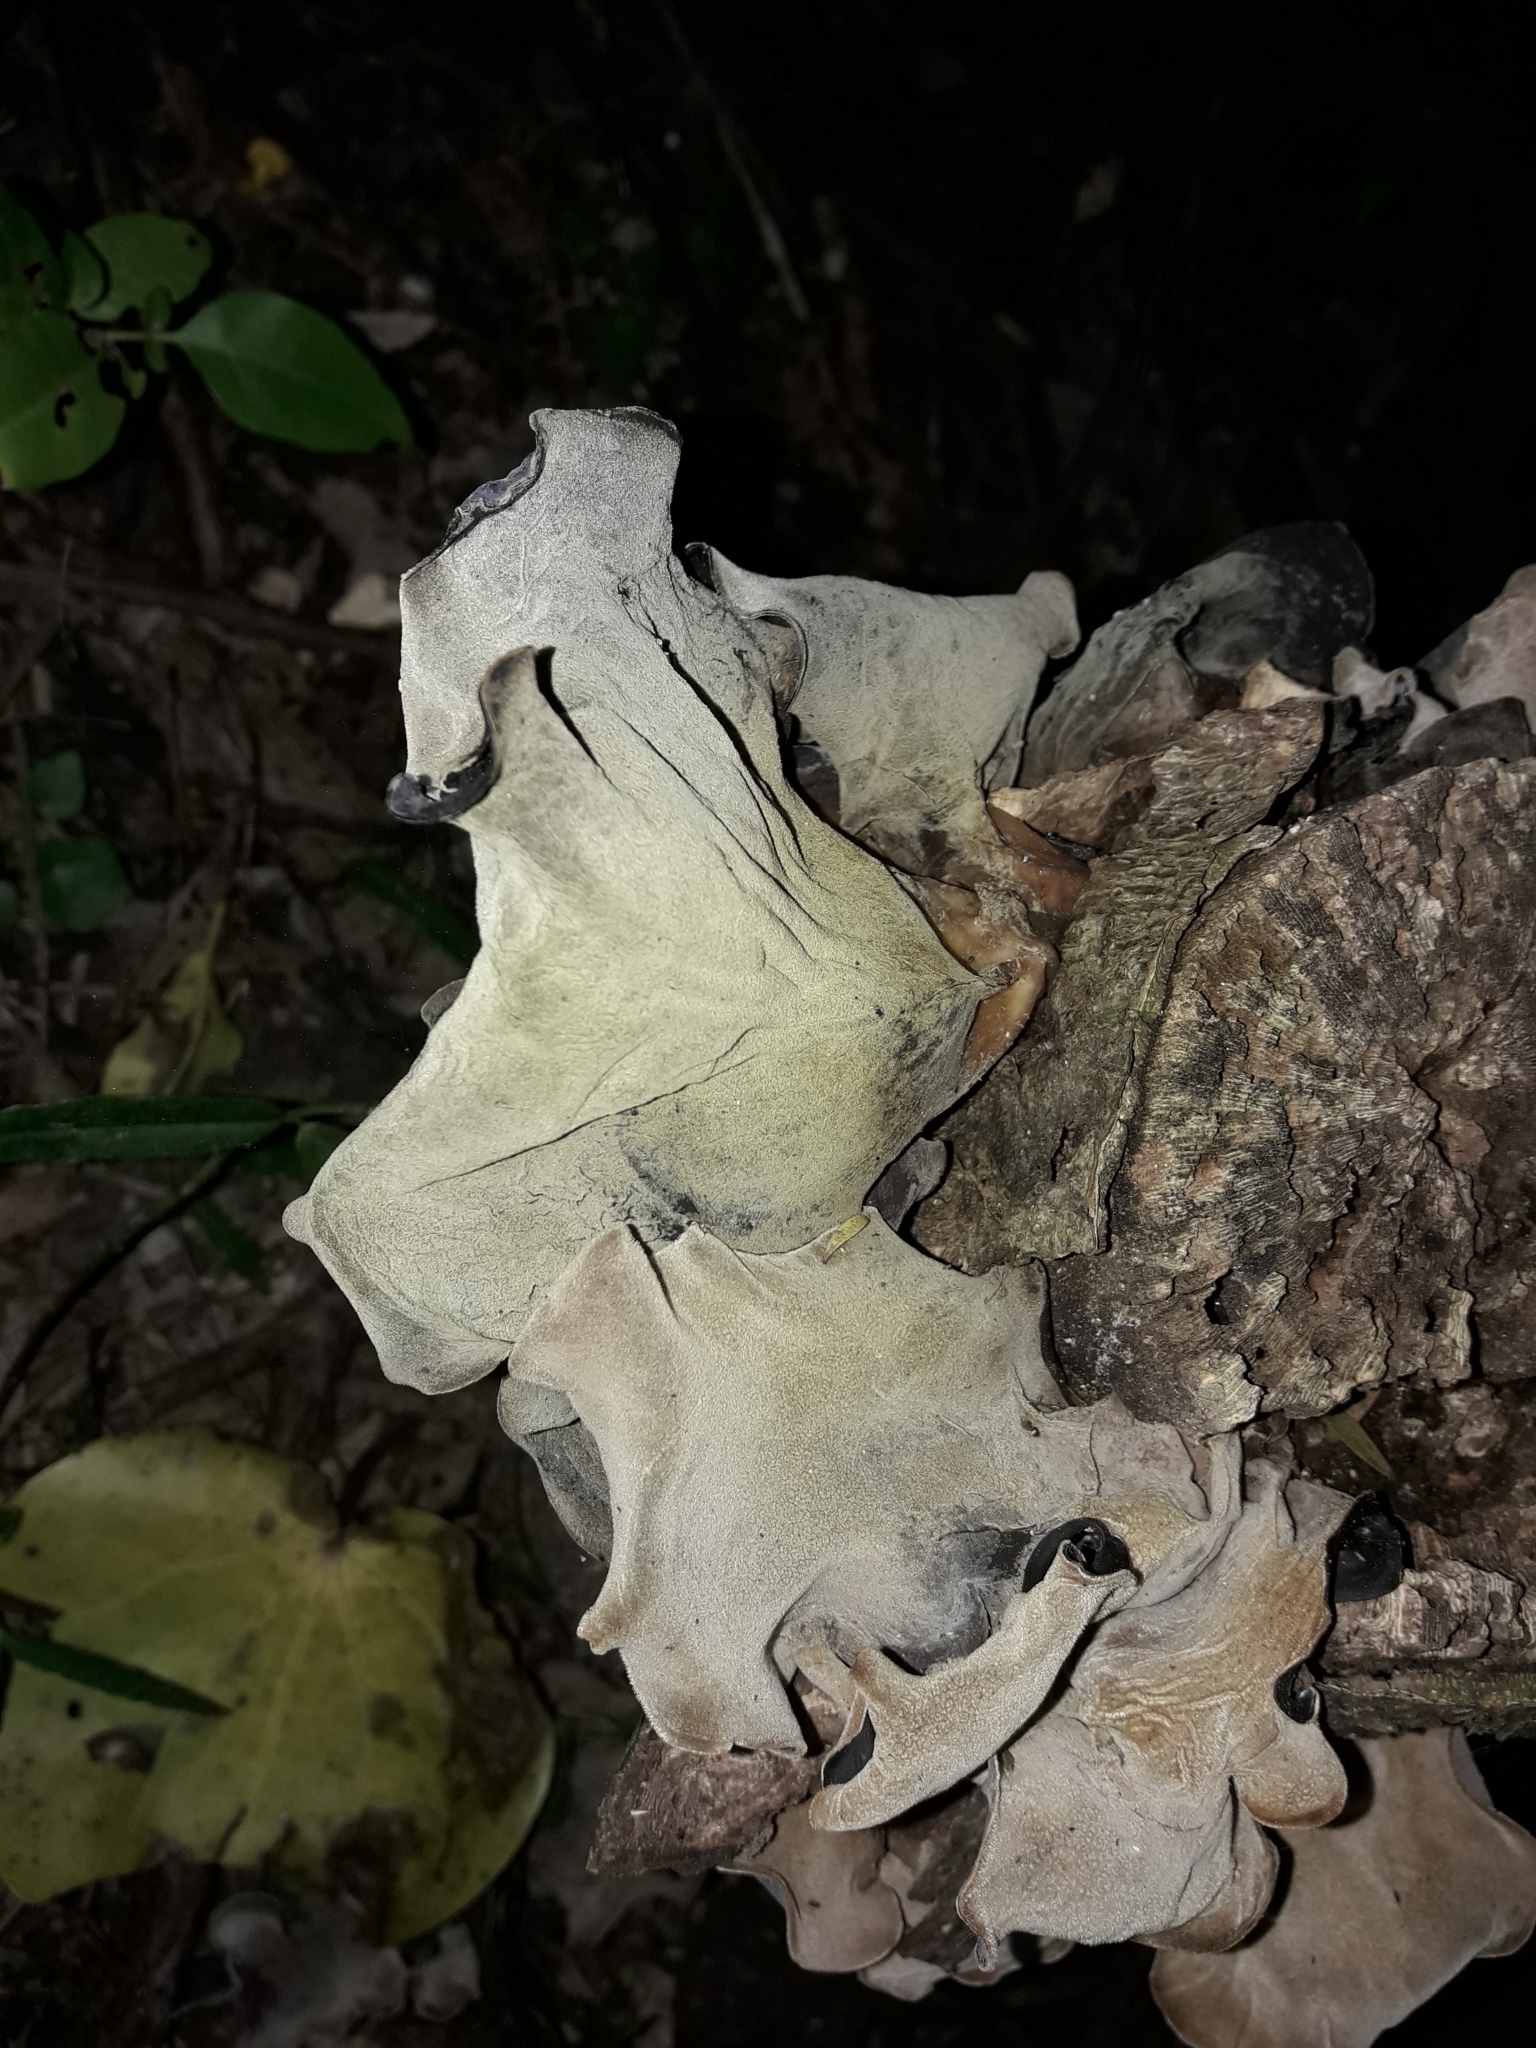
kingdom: Fungi
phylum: Basidiomycota
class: Agaricomycetes
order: Auriculariales
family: Auriculariaceae
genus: Auricularia
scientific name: Auricularia cornea
